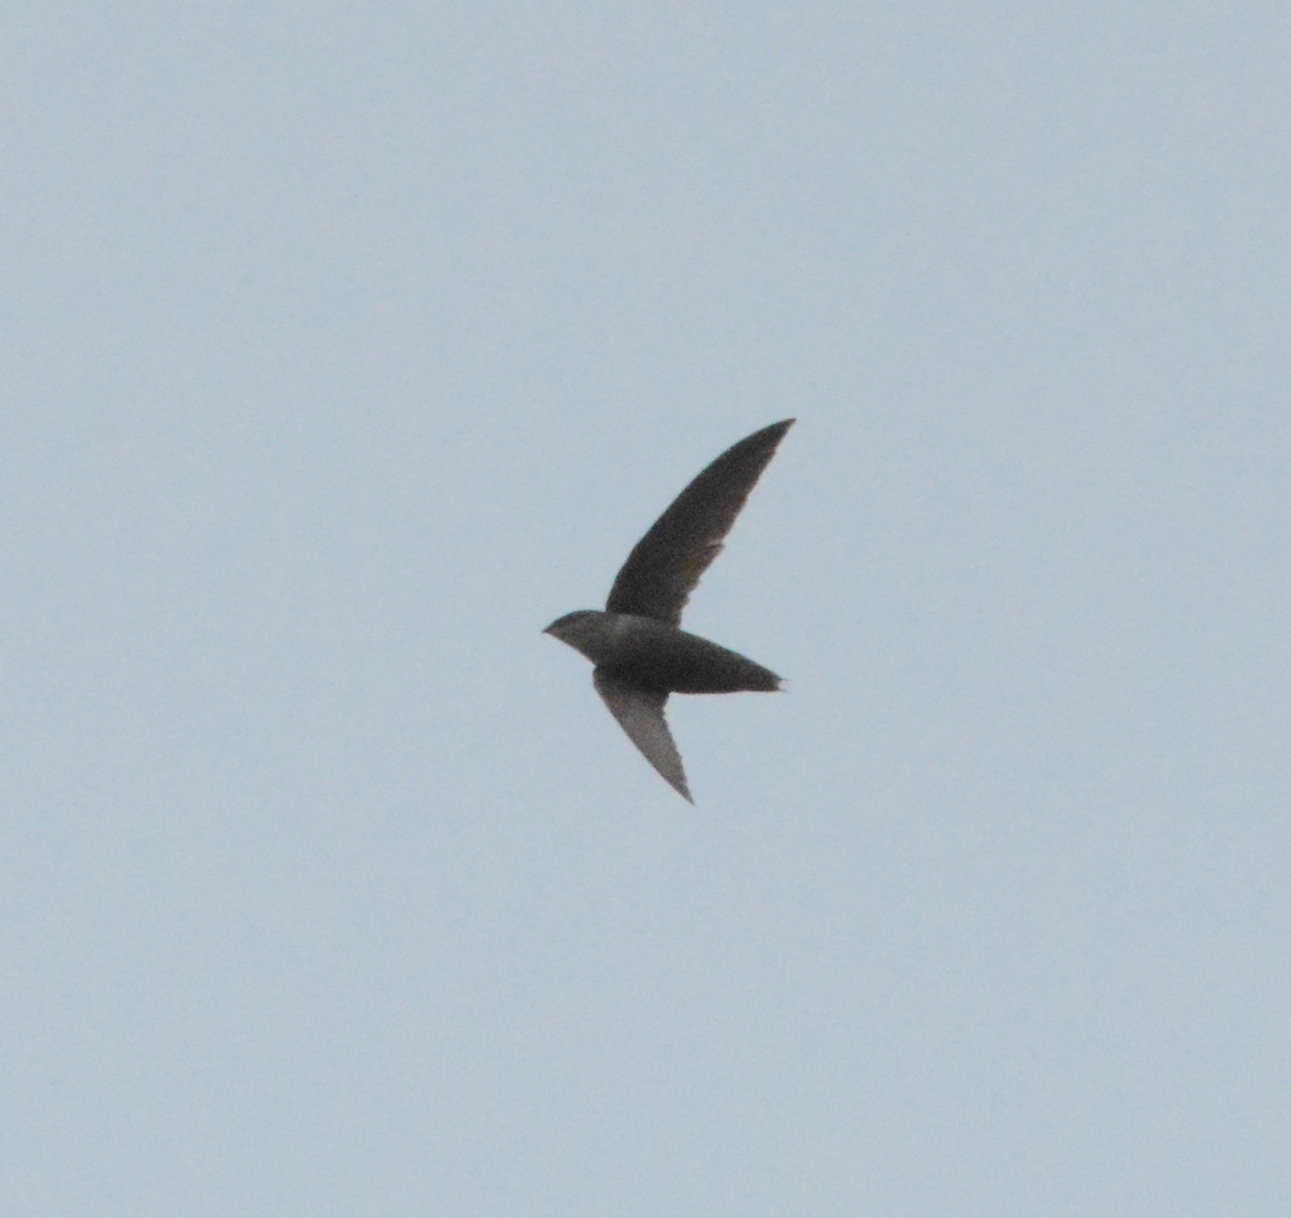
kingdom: Animalia
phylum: Chordata
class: Aves
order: Apodiformes
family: Apodidae
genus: Chaetura
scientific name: Chaetura pelagica
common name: Chimney swift
